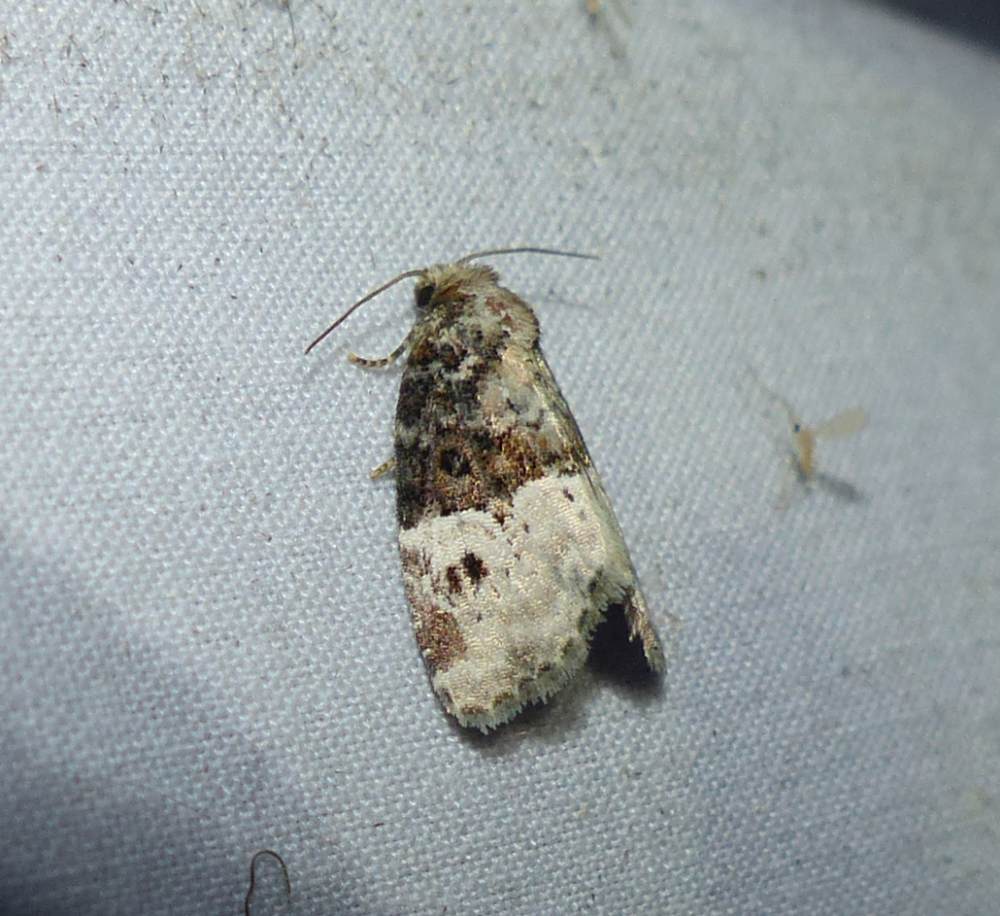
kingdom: Animalia
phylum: Arthropoda
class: Insecta
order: Lepidoptera
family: Noctuidae
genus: Neoligia
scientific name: Neoligia crytora
